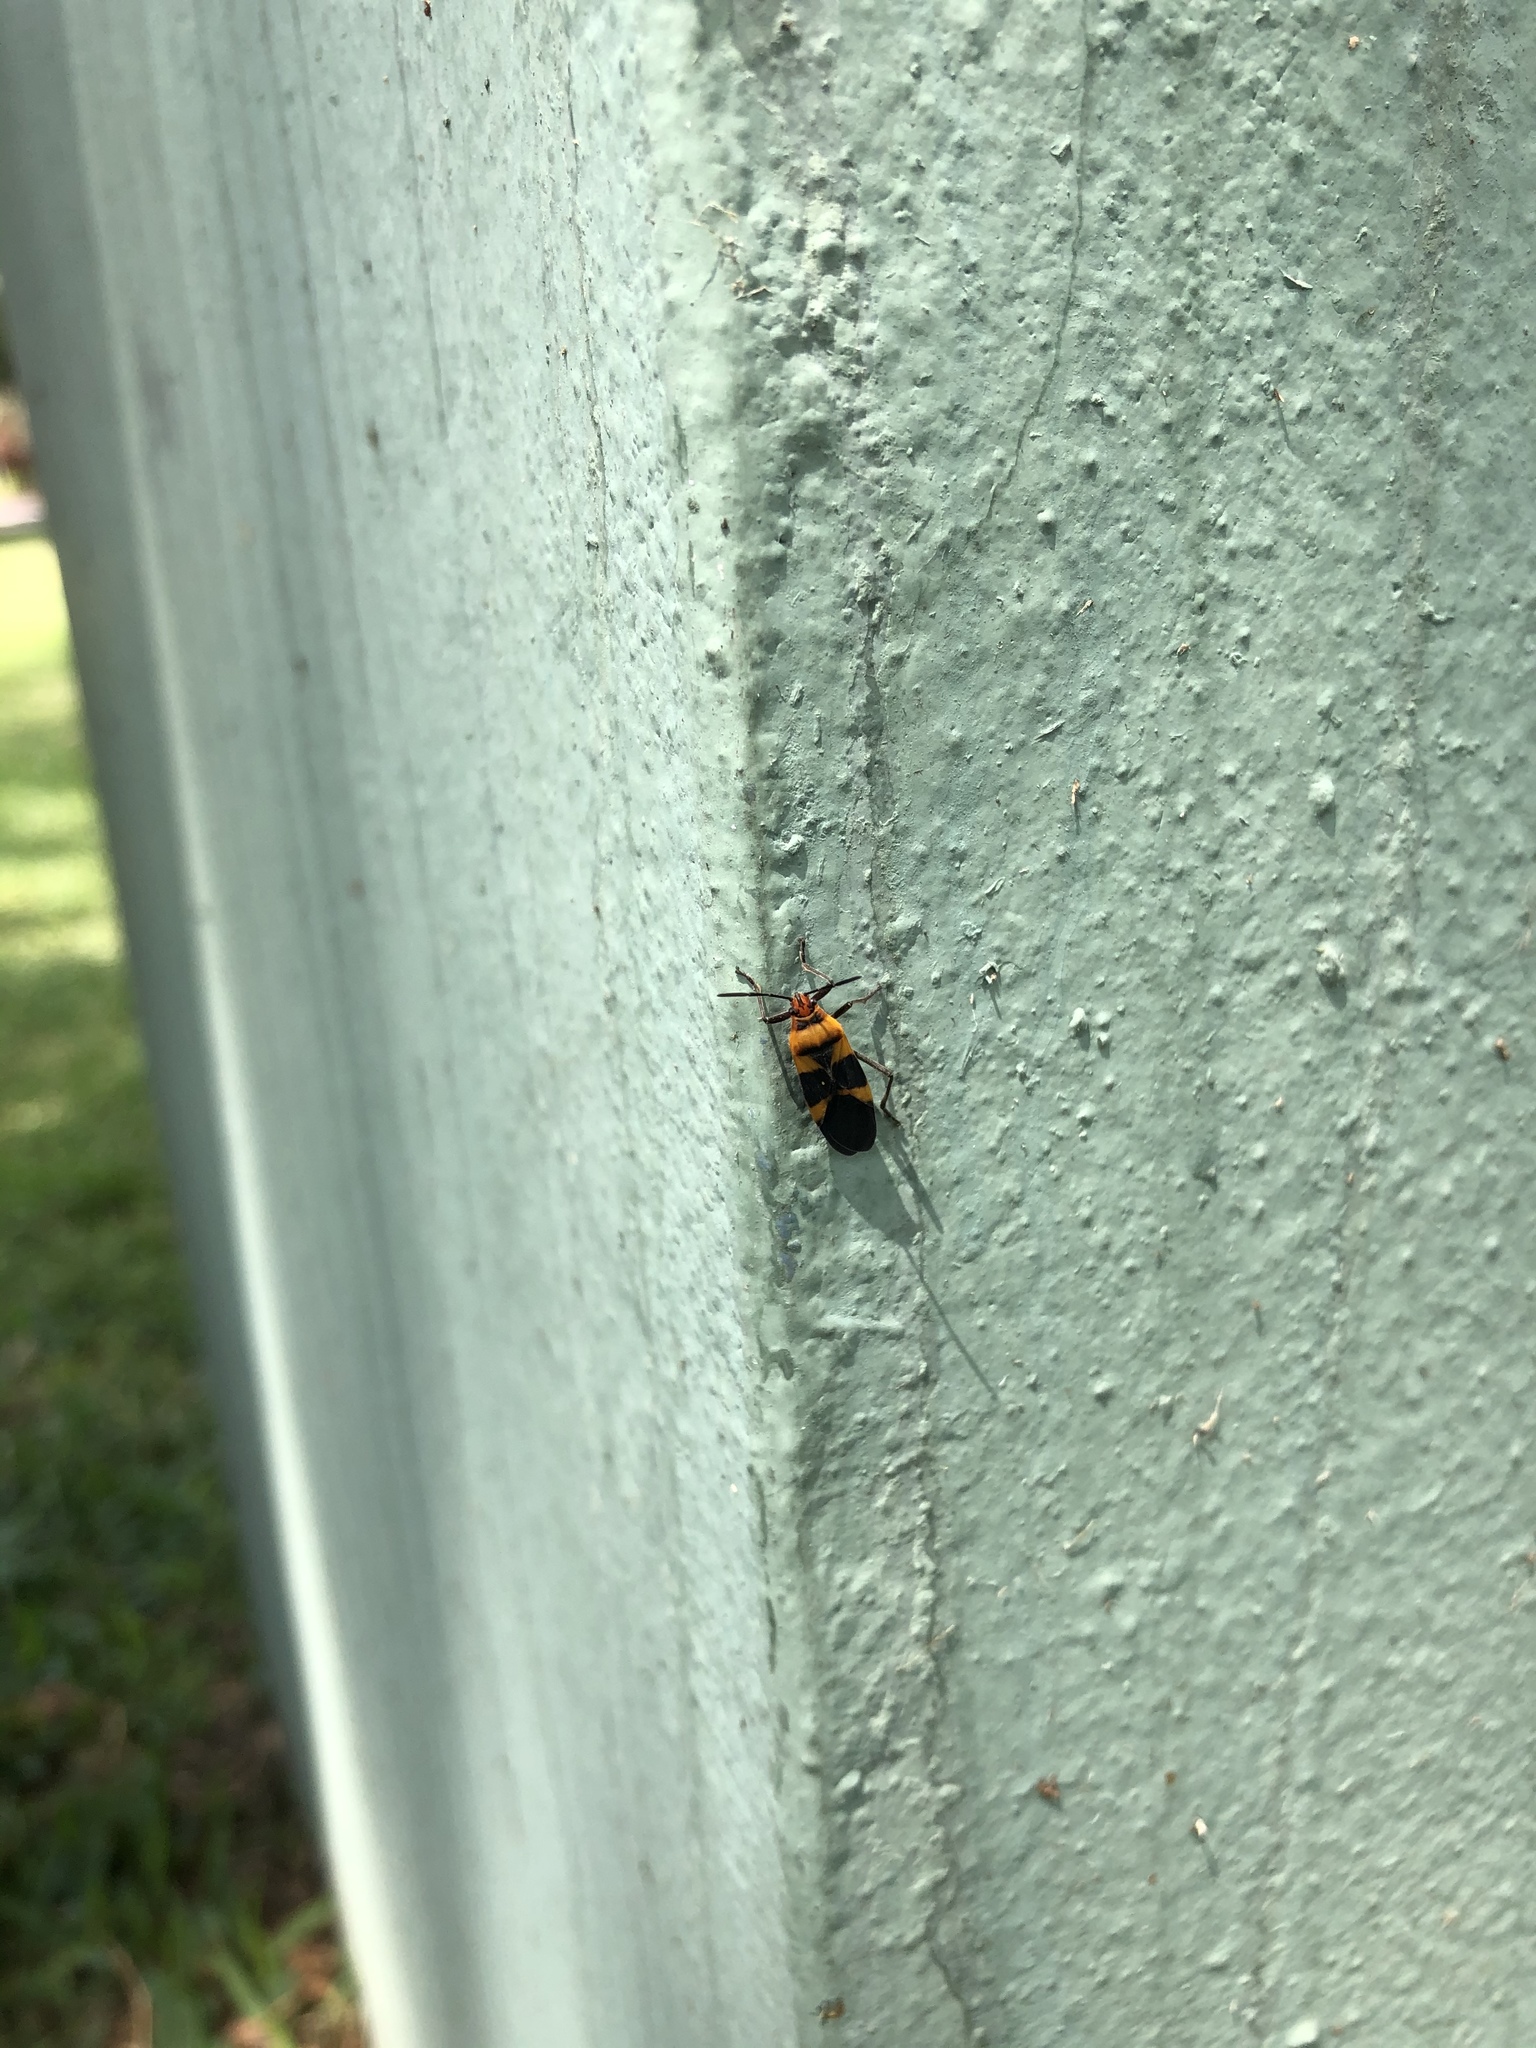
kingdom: Animalia
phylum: Arthropoda
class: Insecta
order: Hemiptera
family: Lygaeidae
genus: Oncopeltus
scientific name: Oncopeltus zonatus
